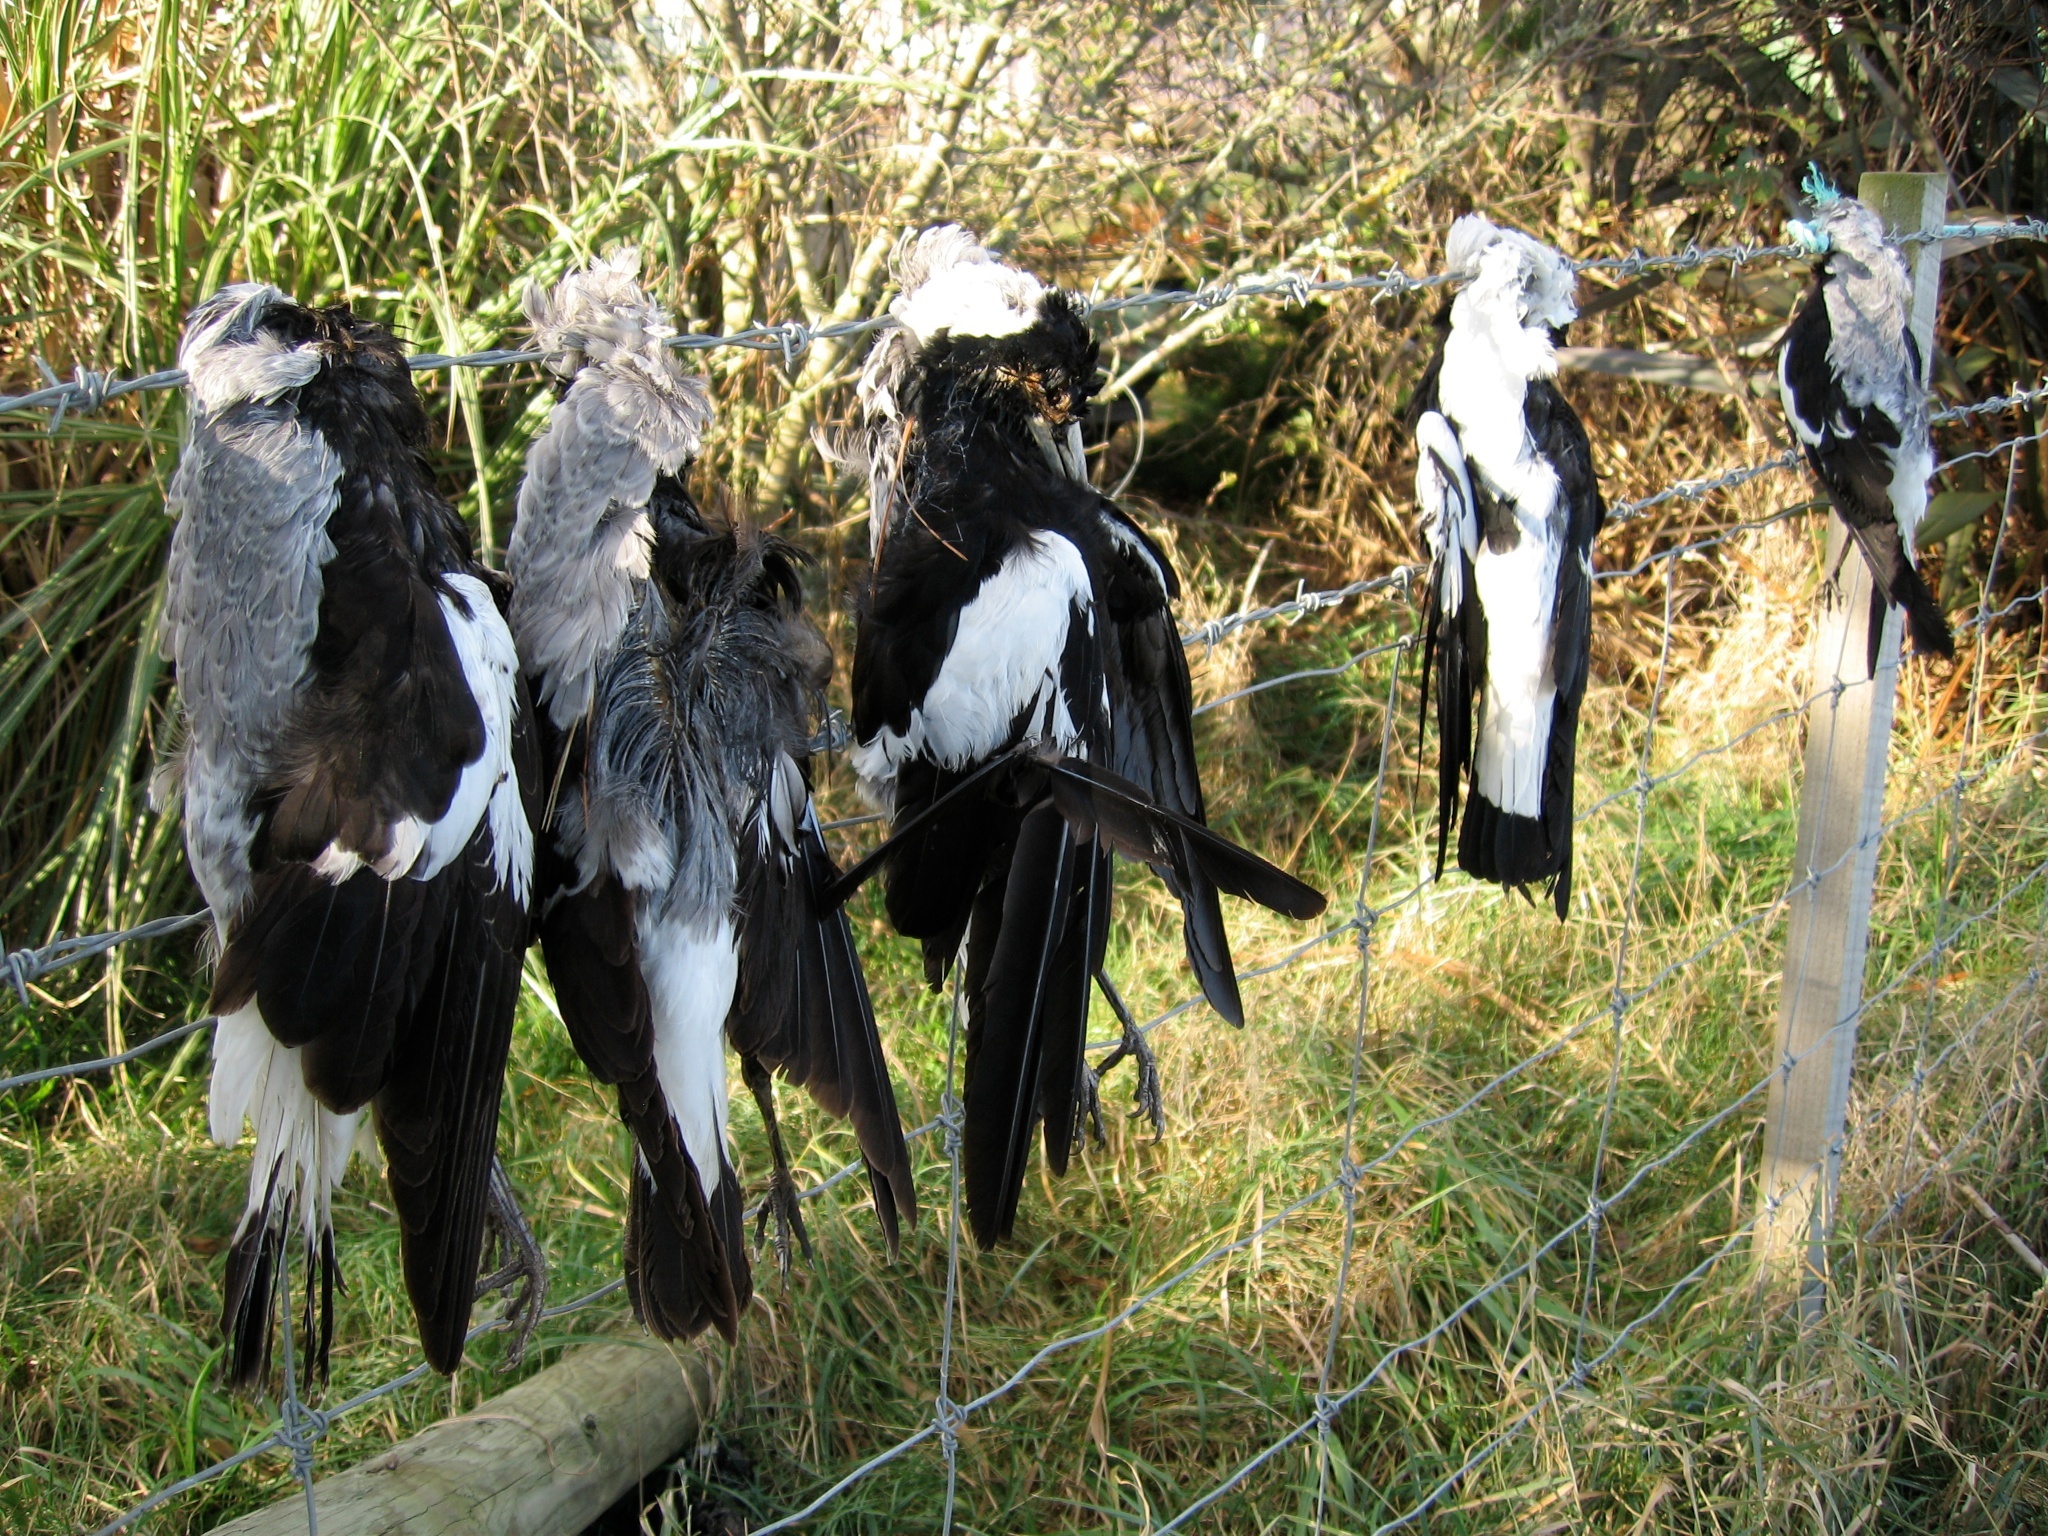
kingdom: Animalia
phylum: Chordata
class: Aves
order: Passeriformes
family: Cracticidae
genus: Gymnorhina
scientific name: Gymnorhina tibicen
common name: Australian magpie
